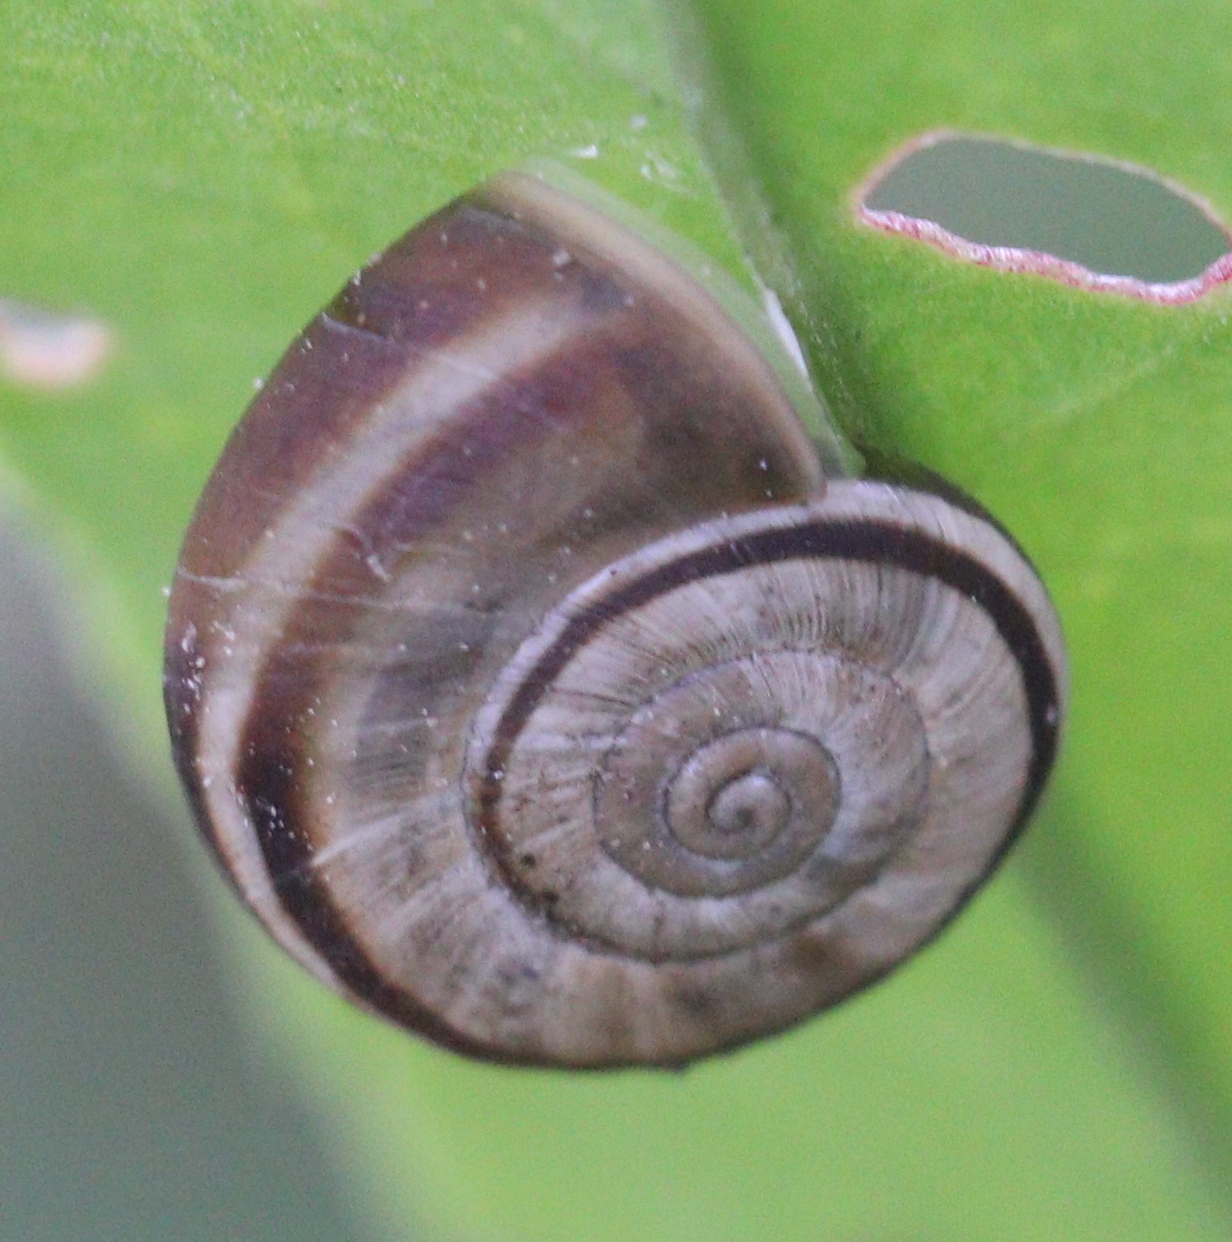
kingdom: Animalia
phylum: Mollusca
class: Gastropoda
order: Stylommatophora
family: Geomitridae
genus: Xerolenta
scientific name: Xerolenta obvia
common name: White heath snail
